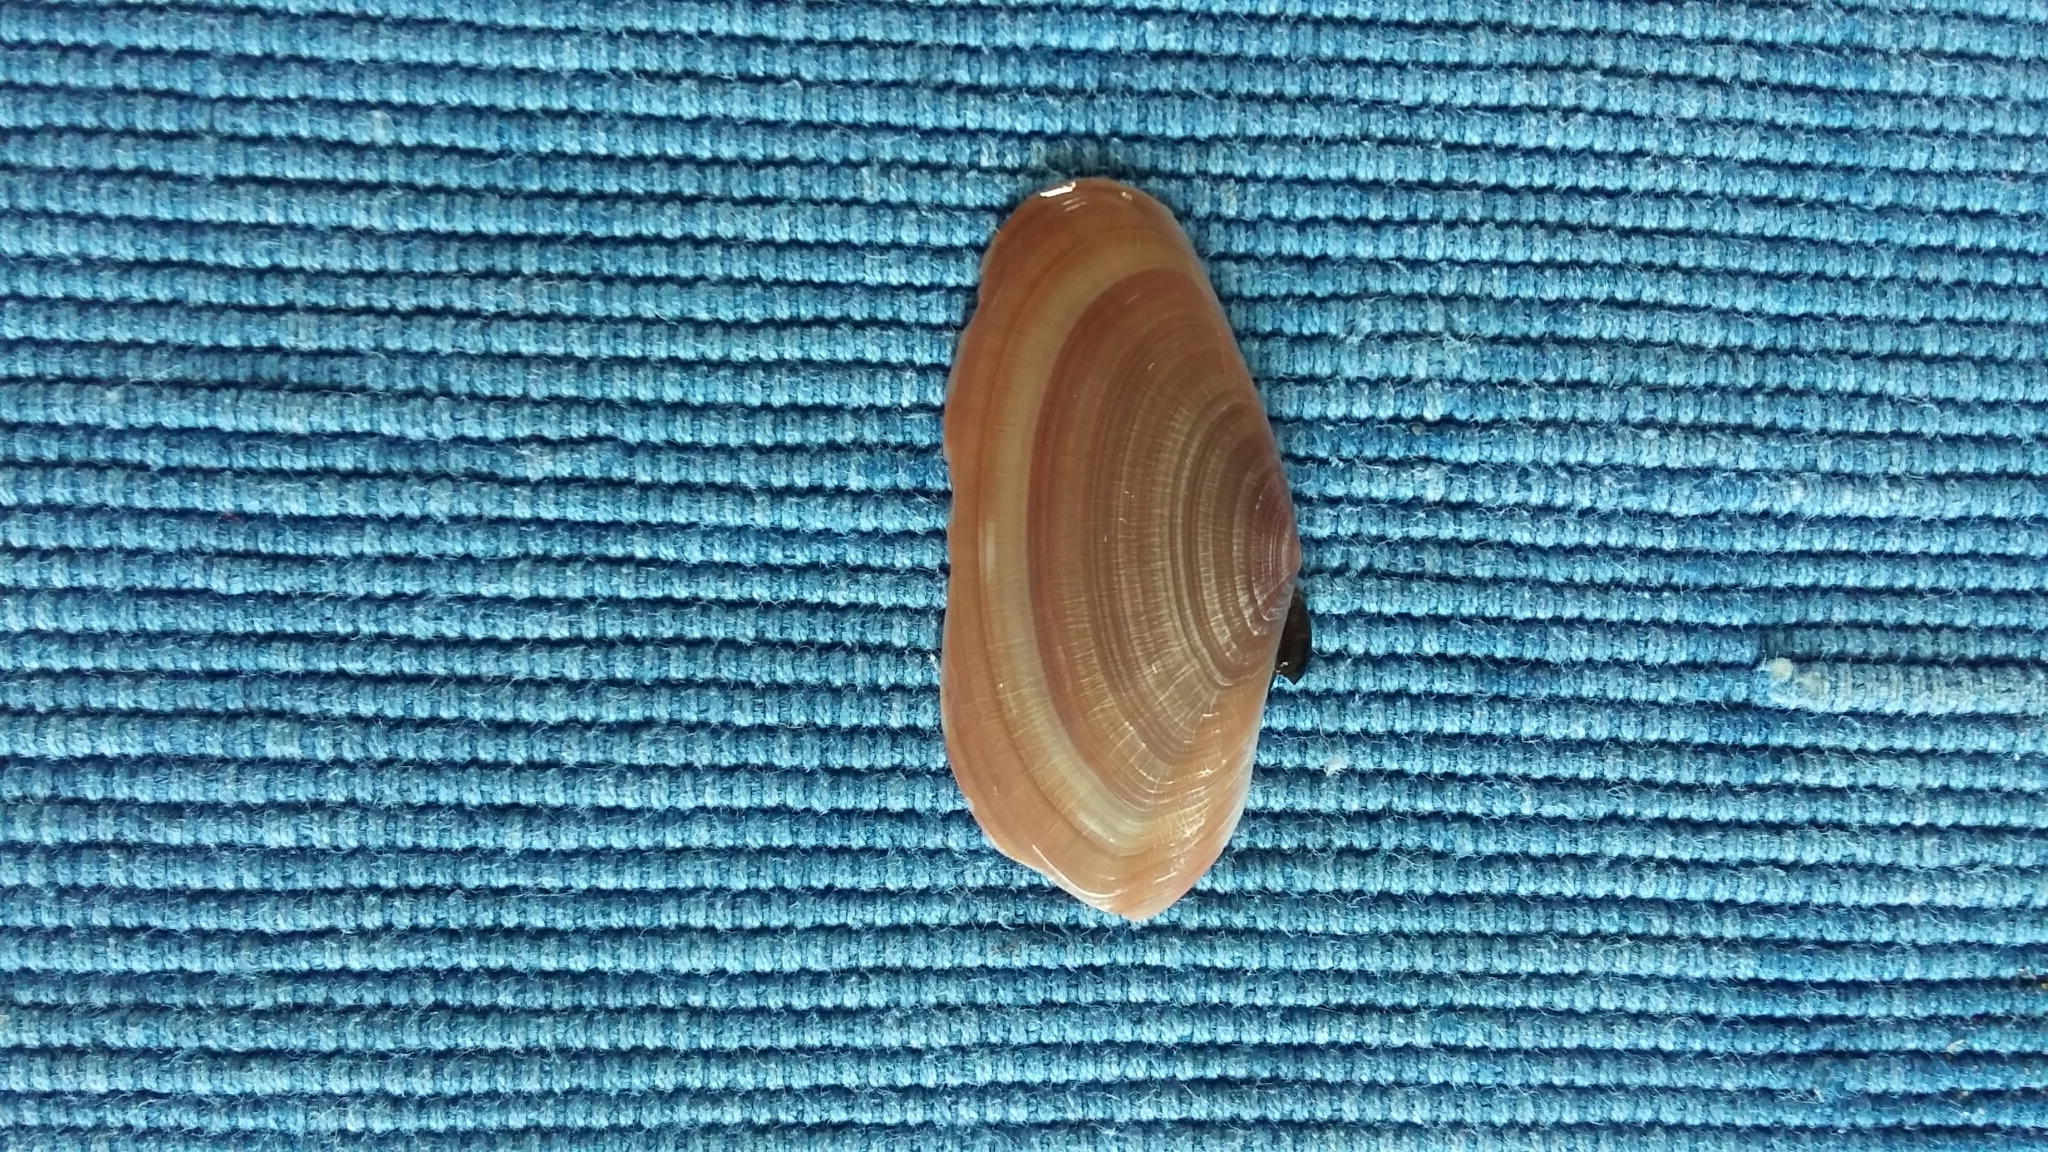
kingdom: Animalia
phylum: Mollusca
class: Bivalvia
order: Cardiida
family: Psammobiidae
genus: Gari
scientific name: Gari lineolata
